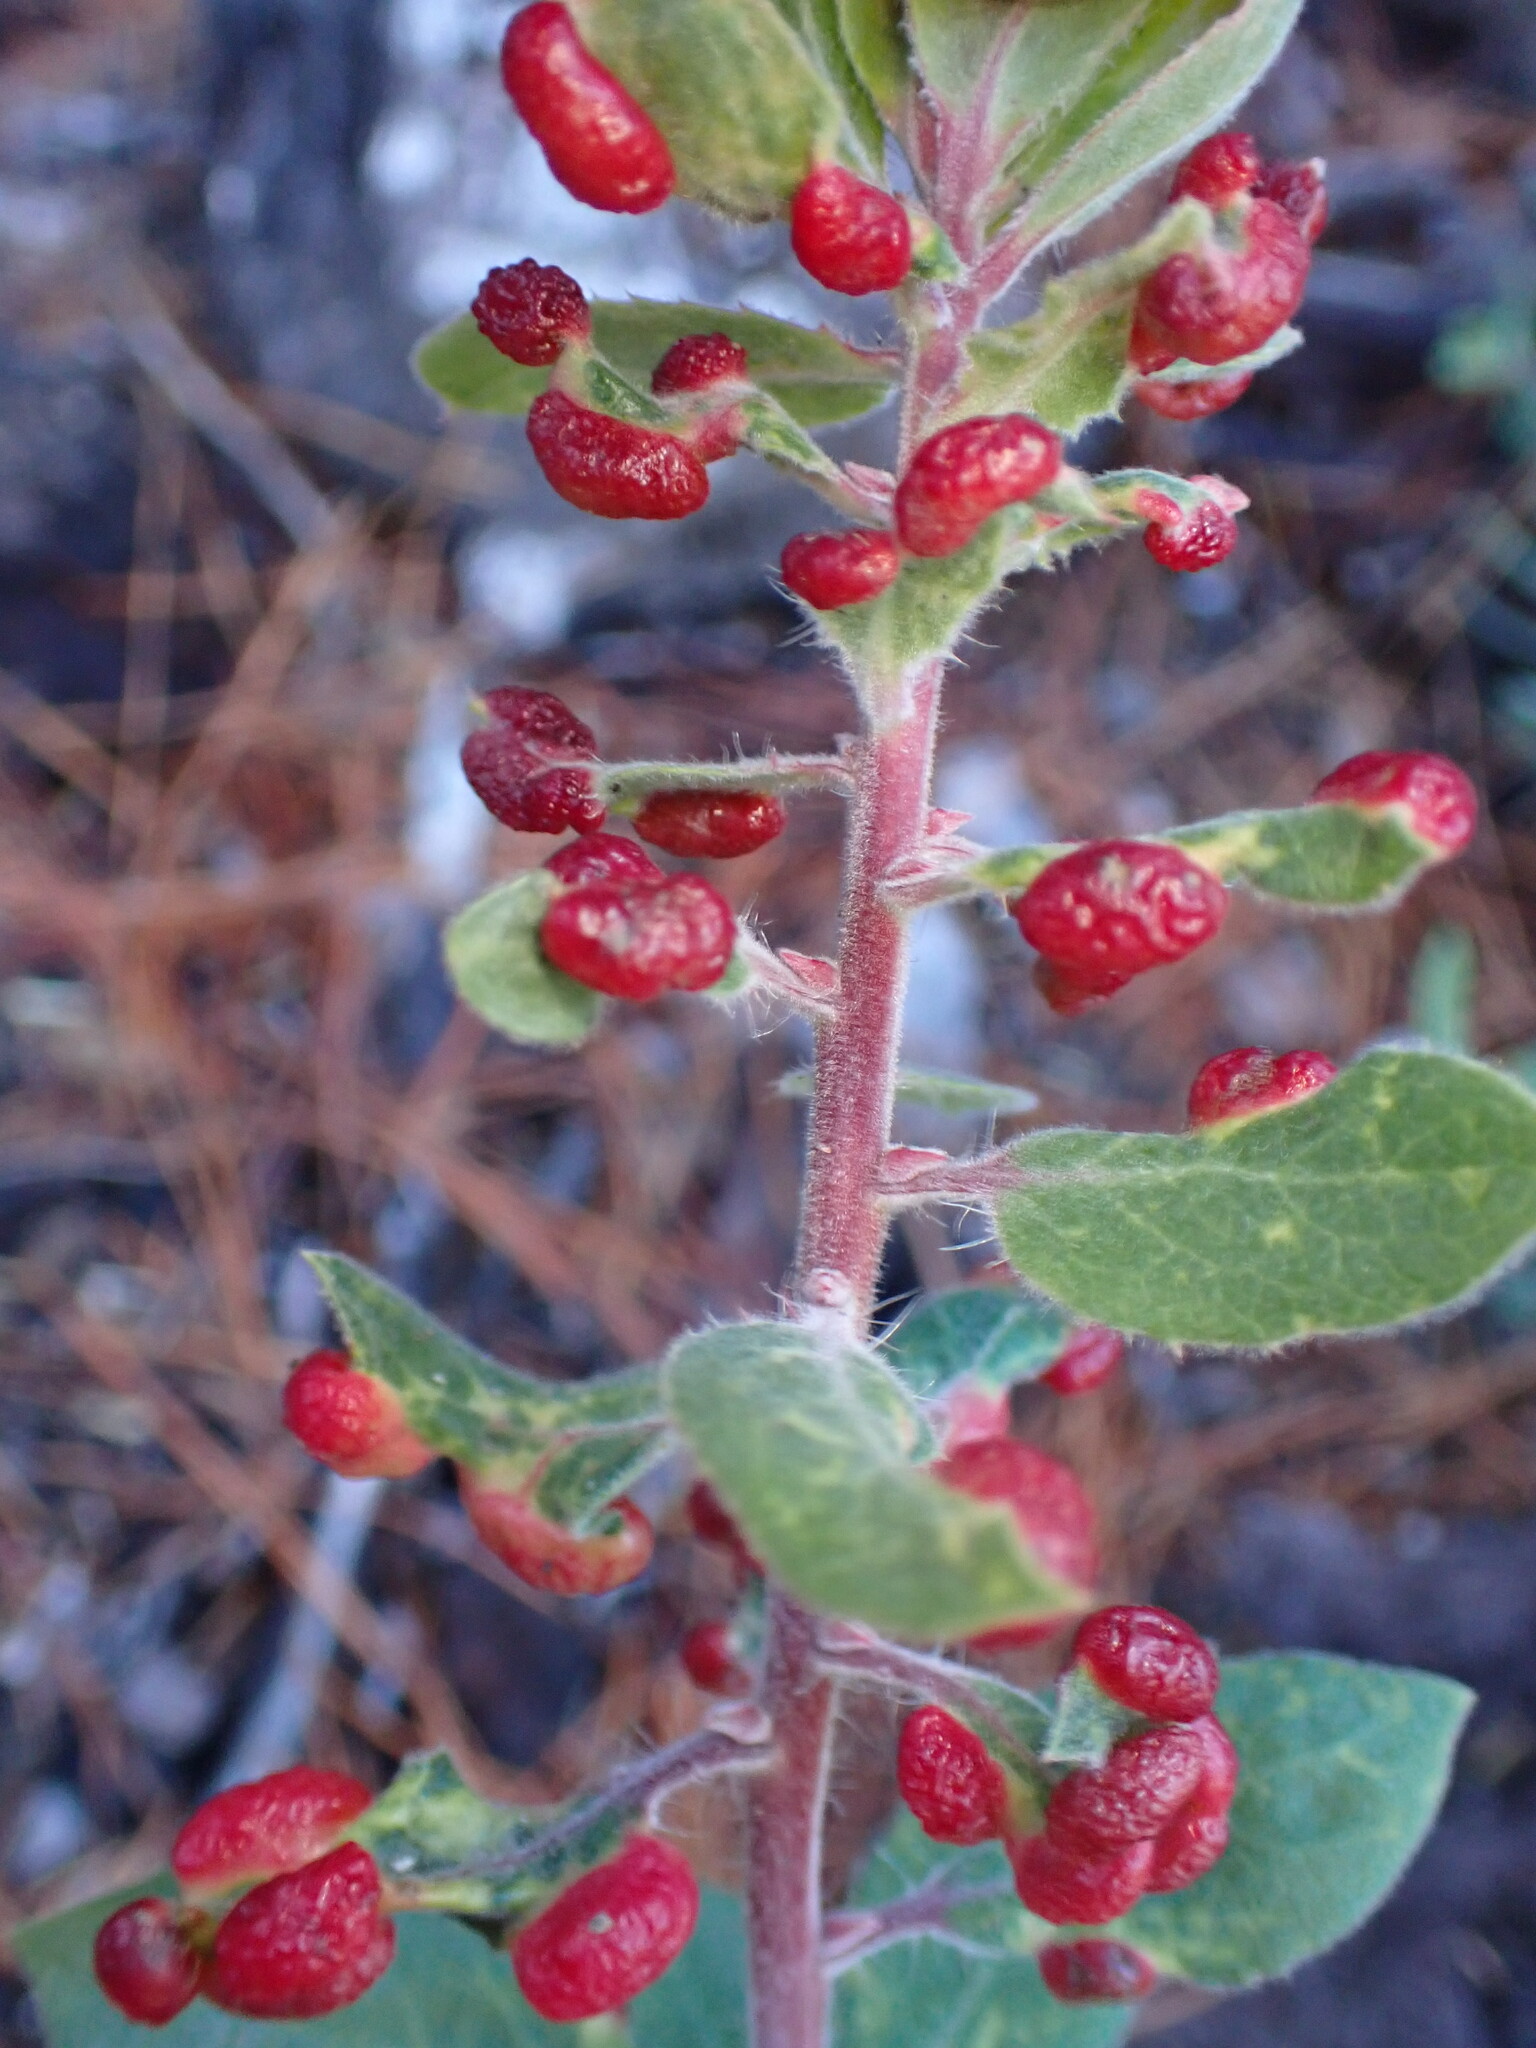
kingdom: Animalia
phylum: Arthropoda
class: Insecta
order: Hemiptera
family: Aphididae
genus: Tamalia
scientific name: Tamalia coweni
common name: Manzanita leafgall aphid
